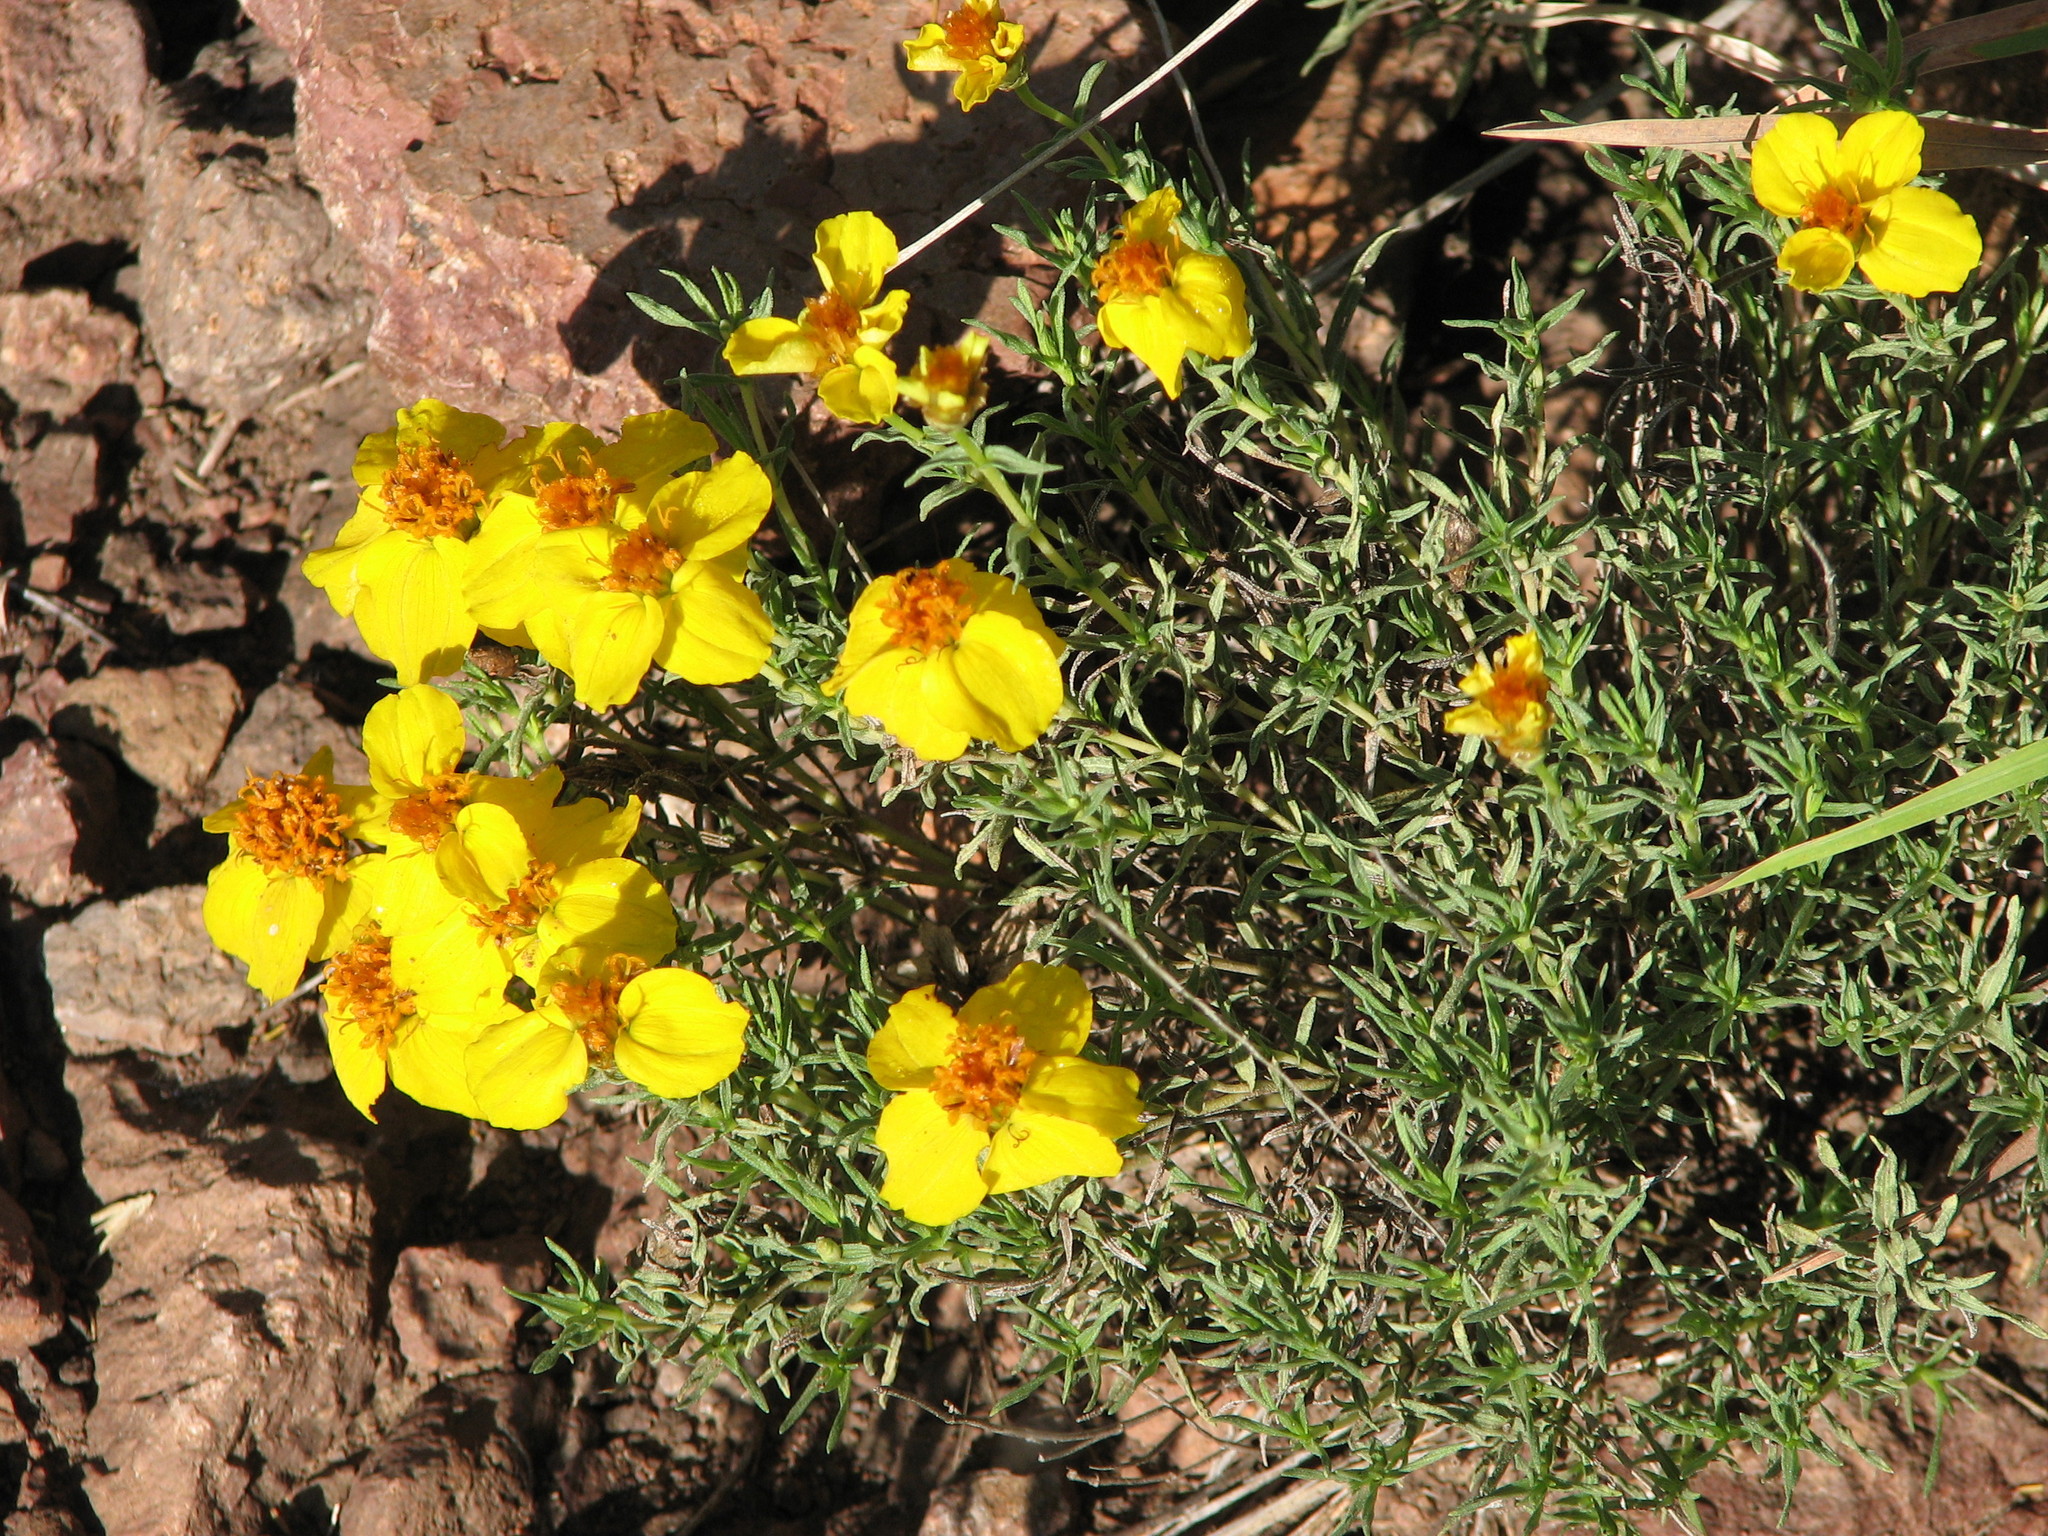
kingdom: Plantae
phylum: Tracheophyta
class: Magnoliopsida
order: Asterales
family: Asteraceae
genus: Zinnia
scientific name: Zinnia grandiflora
